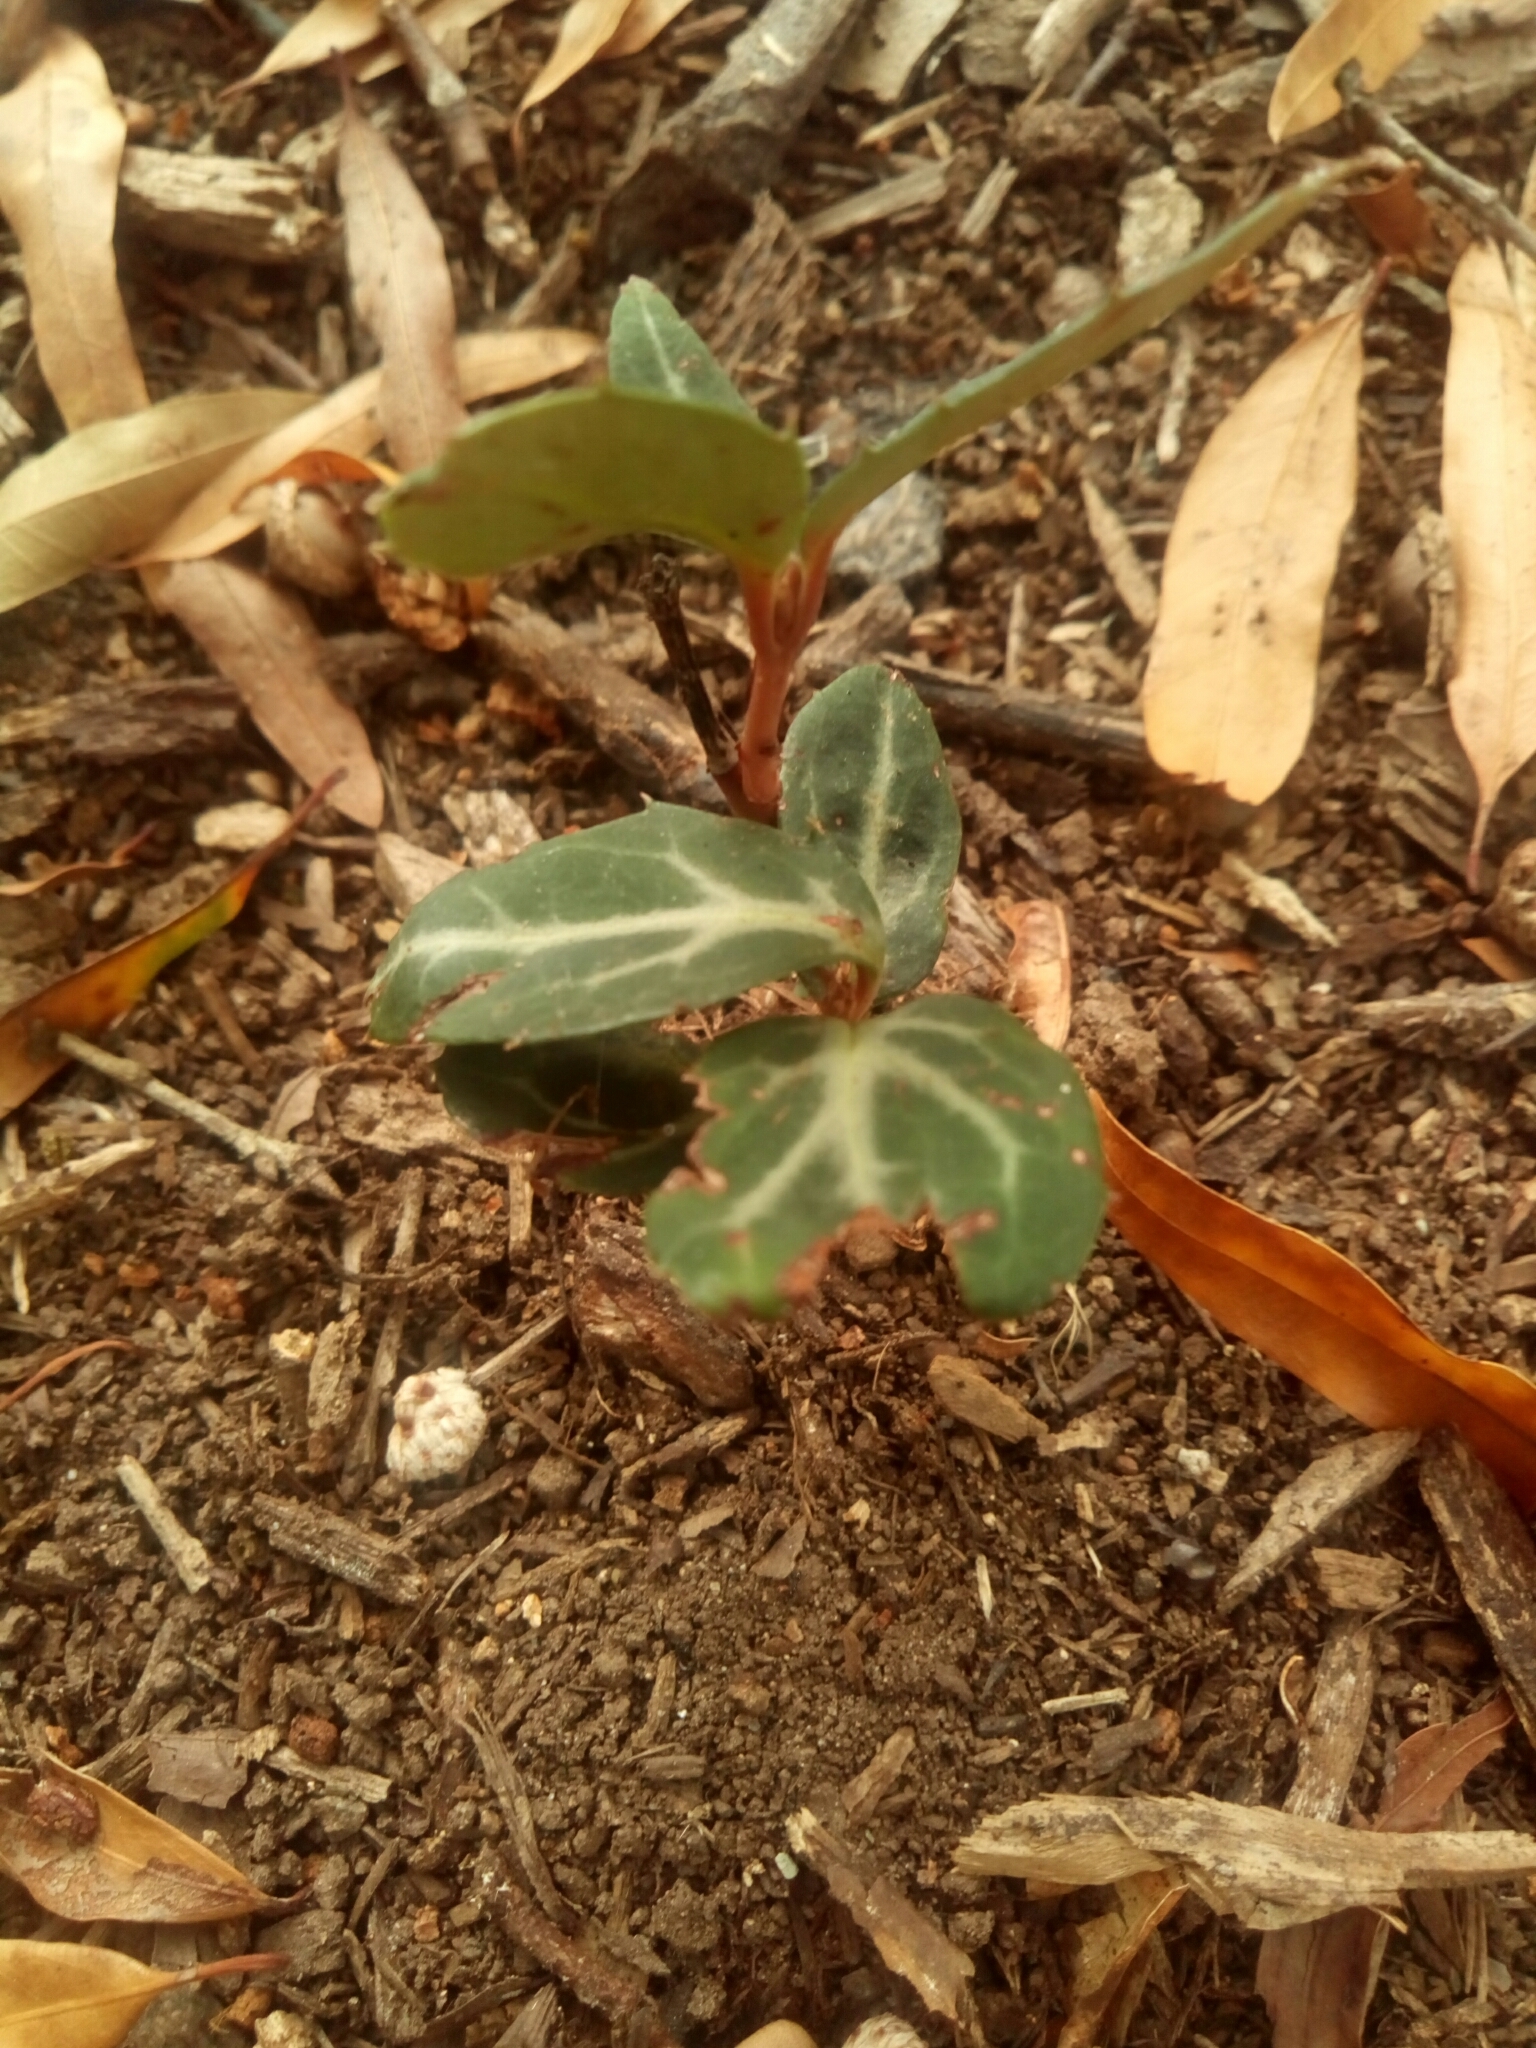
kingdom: Plantae
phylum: Tracheophyta
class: Magnoliopsida
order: Ericales
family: Ericaceae
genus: Chimaphila
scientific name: Chimaphila maculata
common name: Spotted pipsissewa
